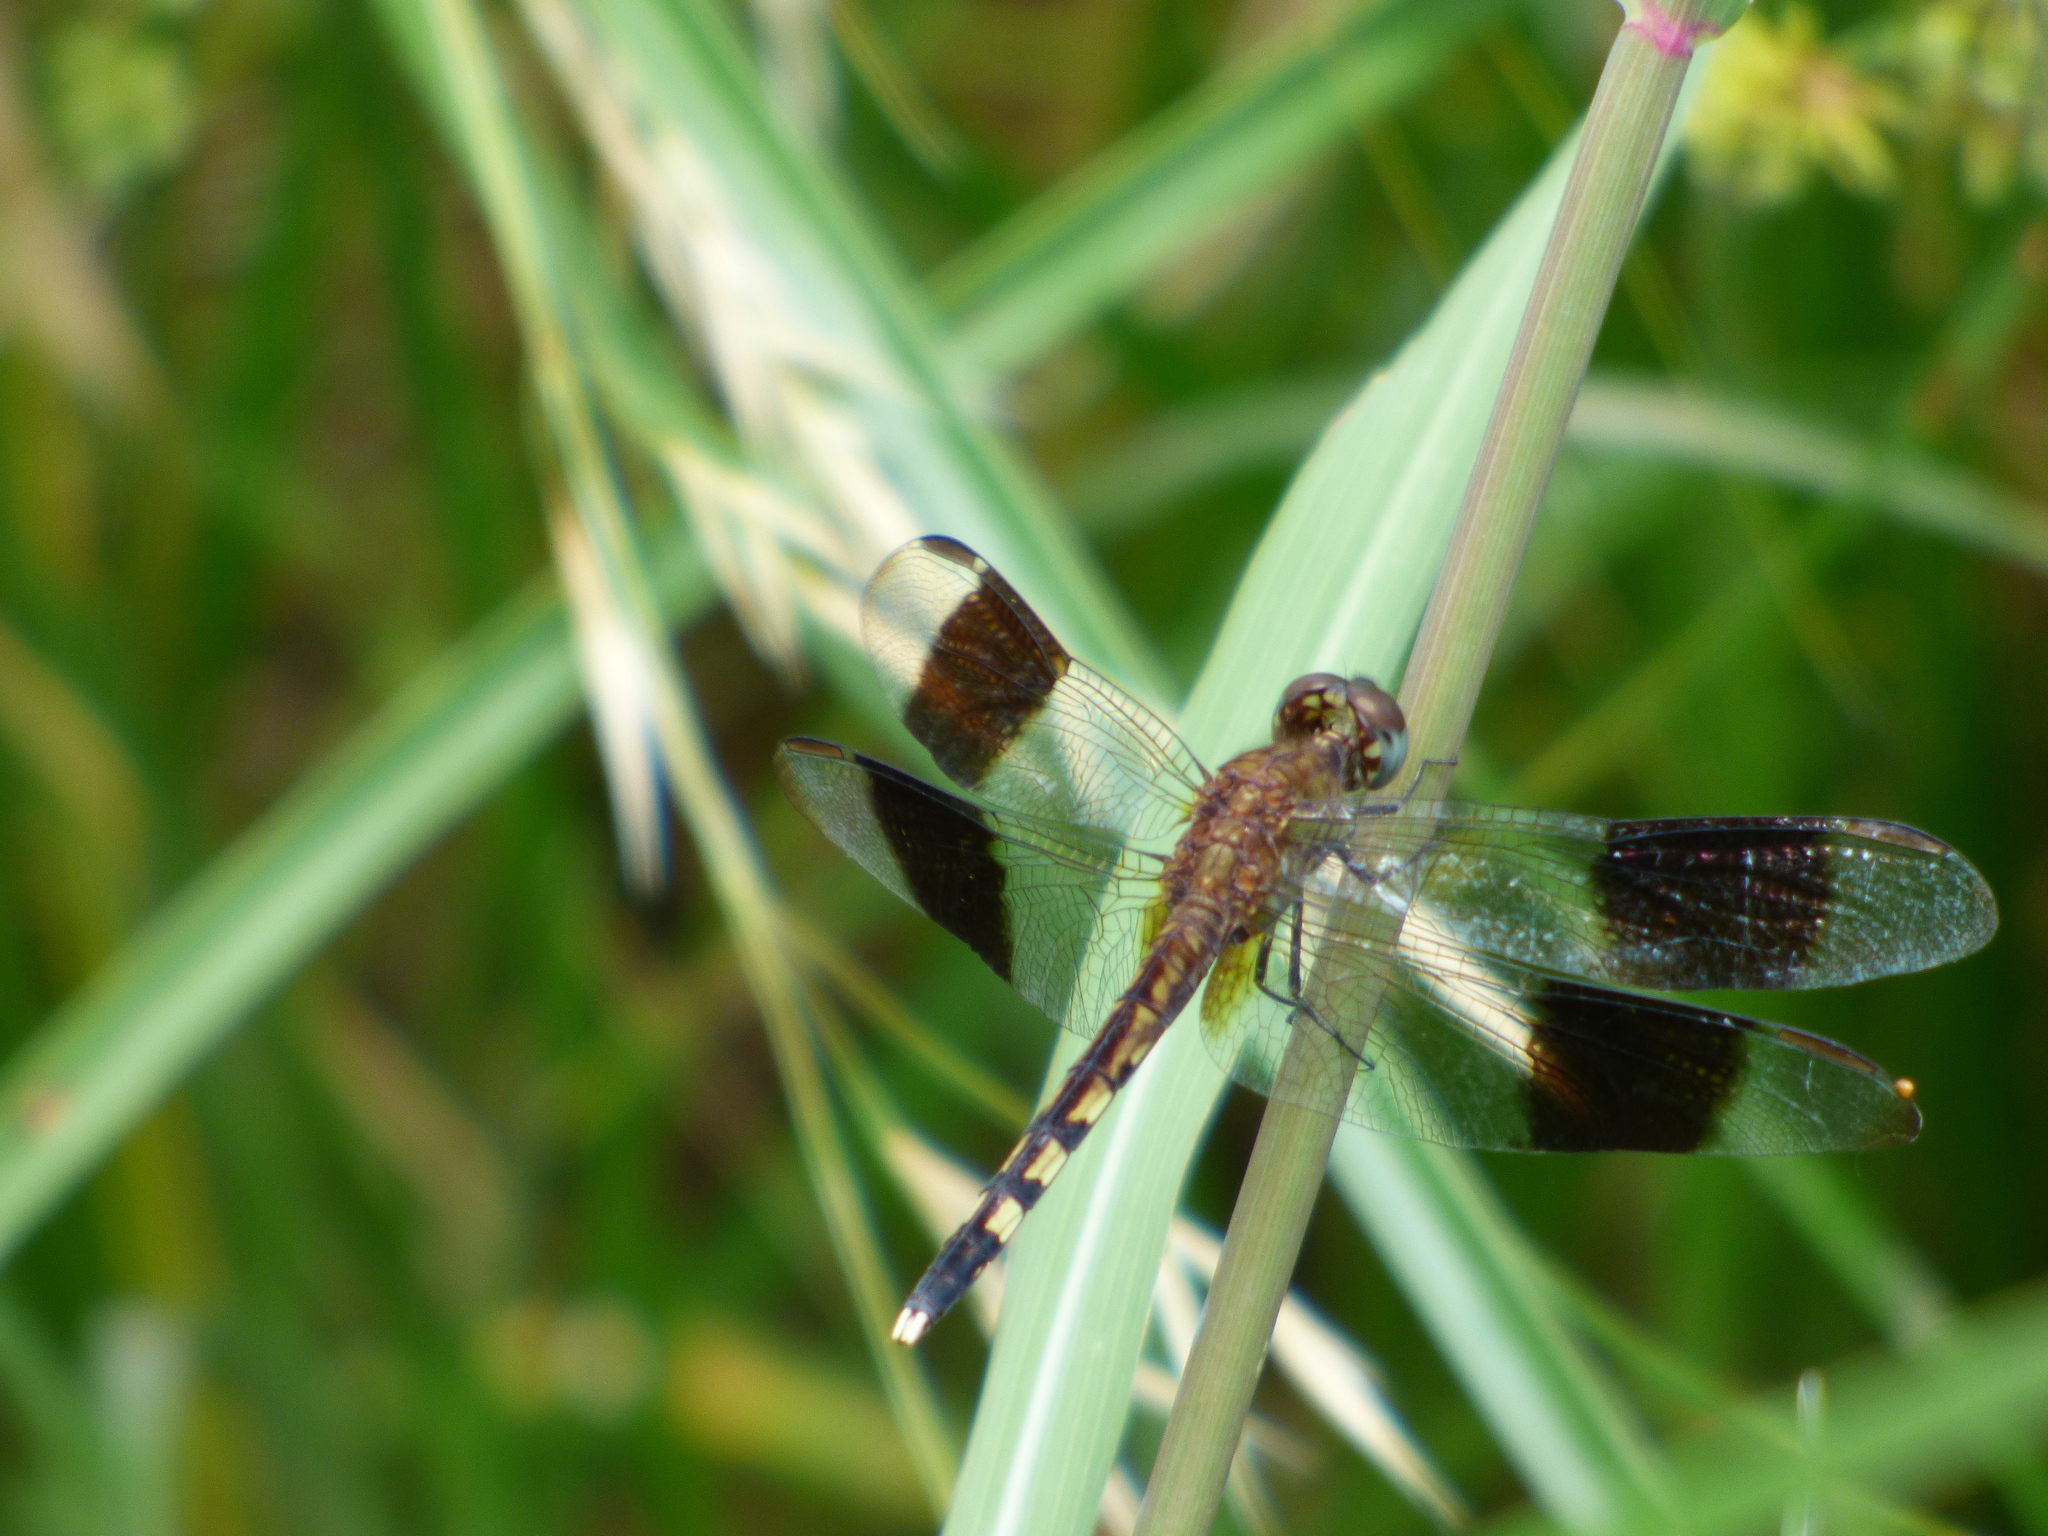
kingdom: Animalia
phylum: Arthropoda
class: Insecta
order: Odonata
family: Libellulidae
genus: Erythrodiplax
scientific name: Erythrodiplax umbrata
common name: Band-winged dragonlet
